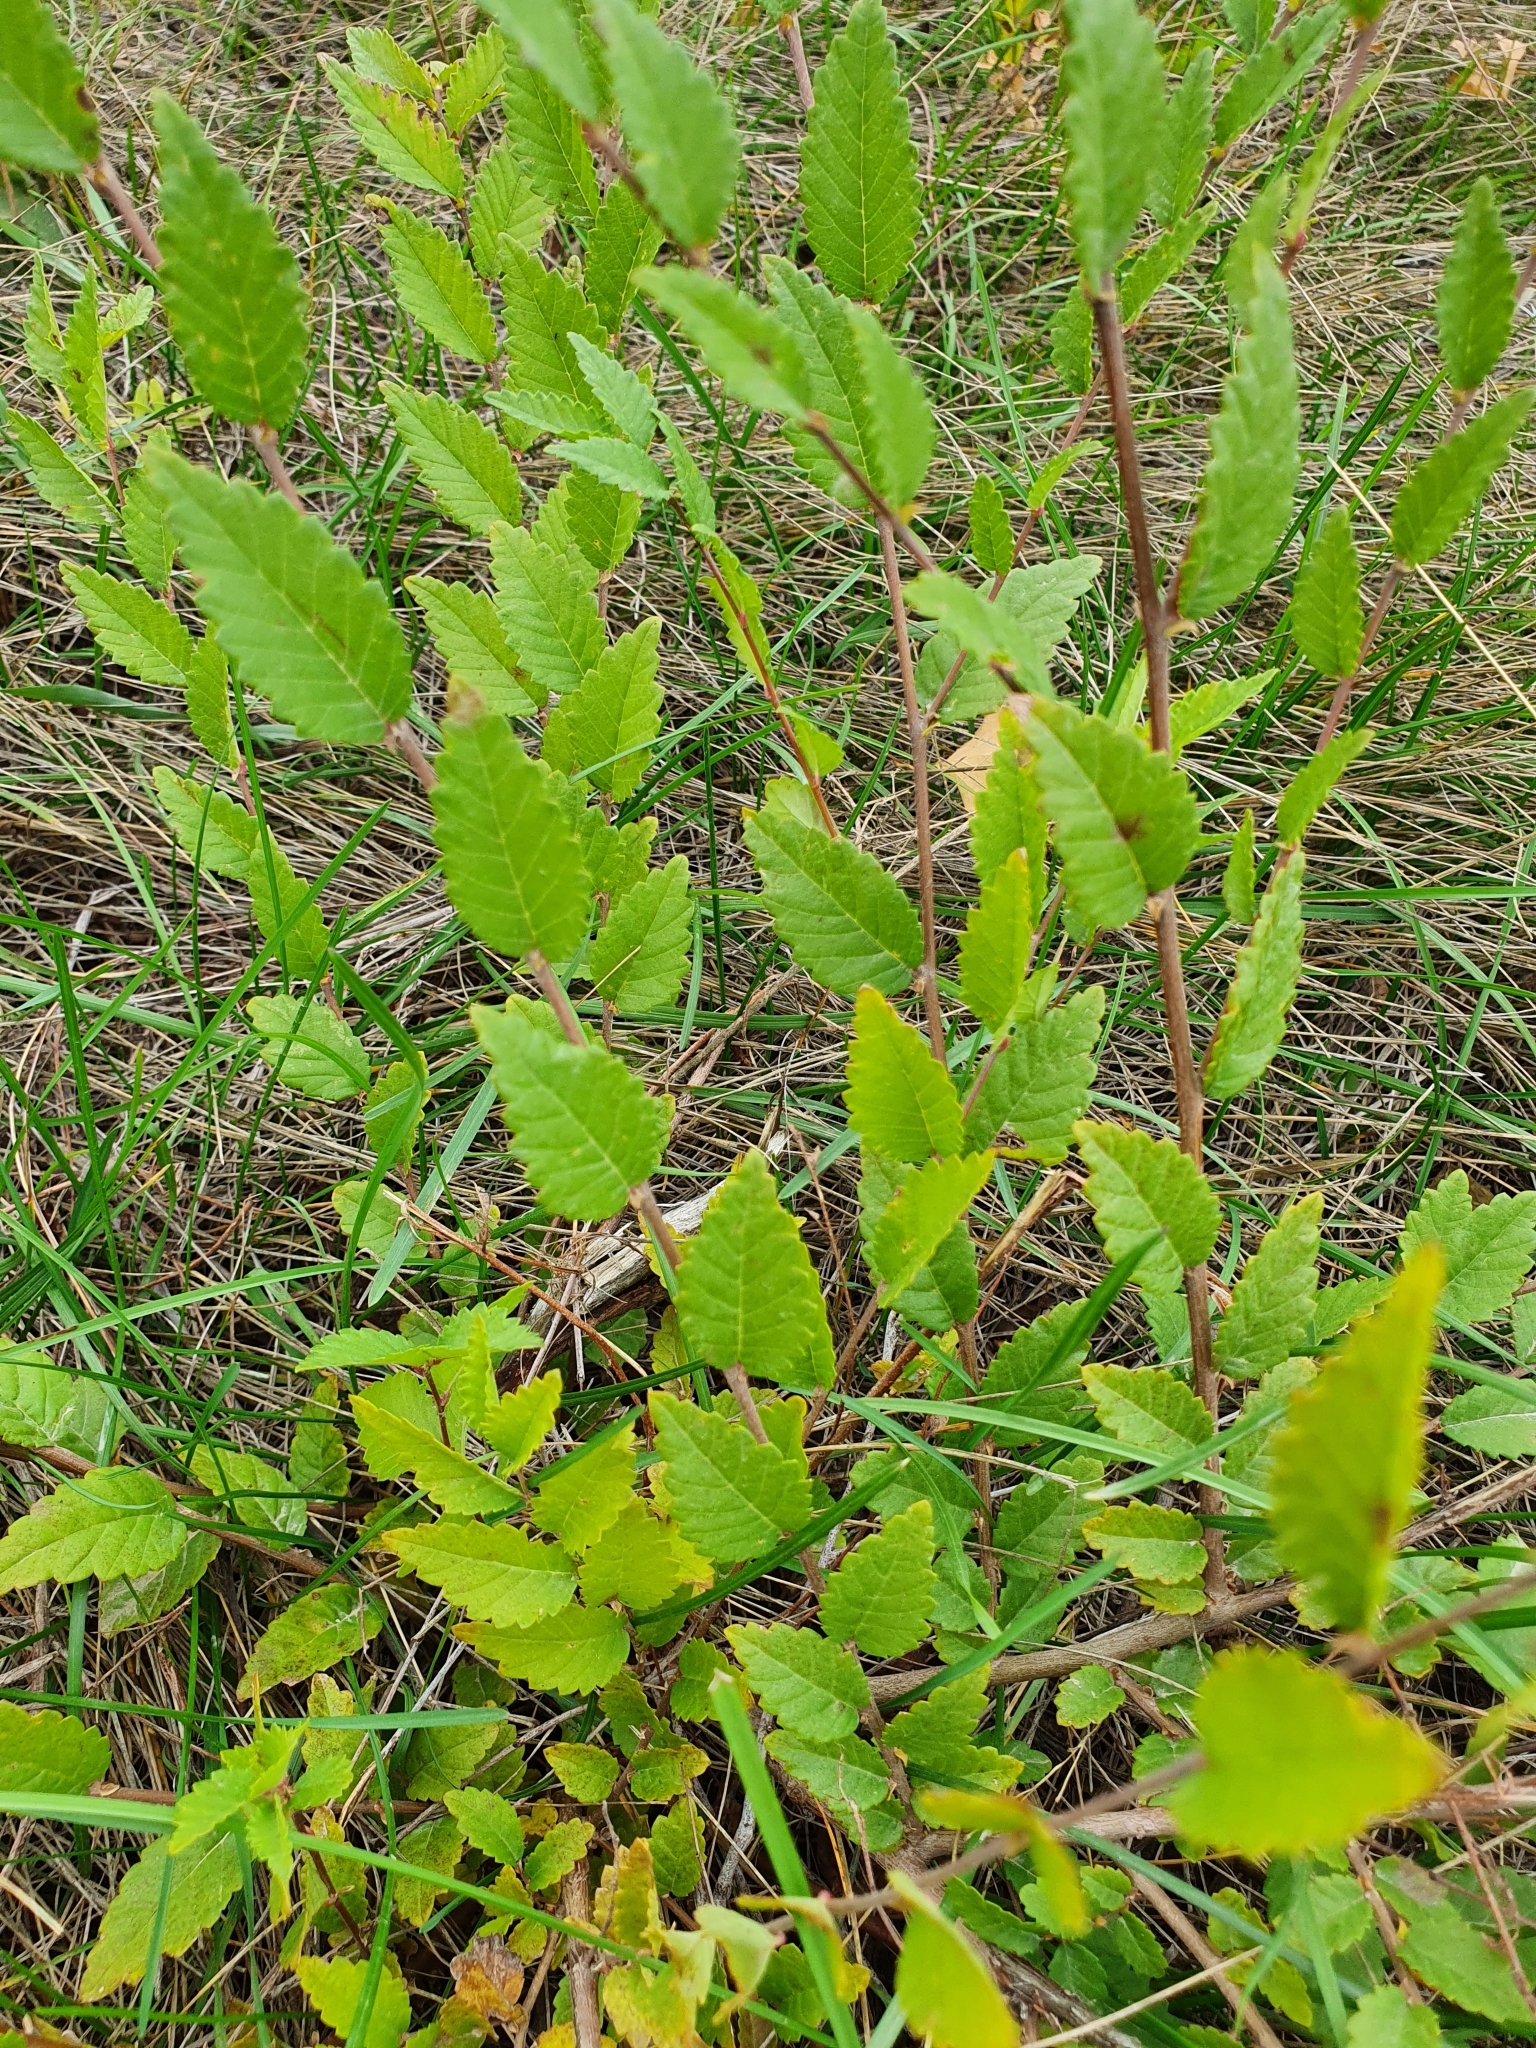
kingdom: Plantae
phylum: Tracheophyta
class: Magnoliopsida
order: Rosales
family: Ulmaceae
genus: Ulmus
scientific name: Ulmus pumila
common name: Siberian elm
